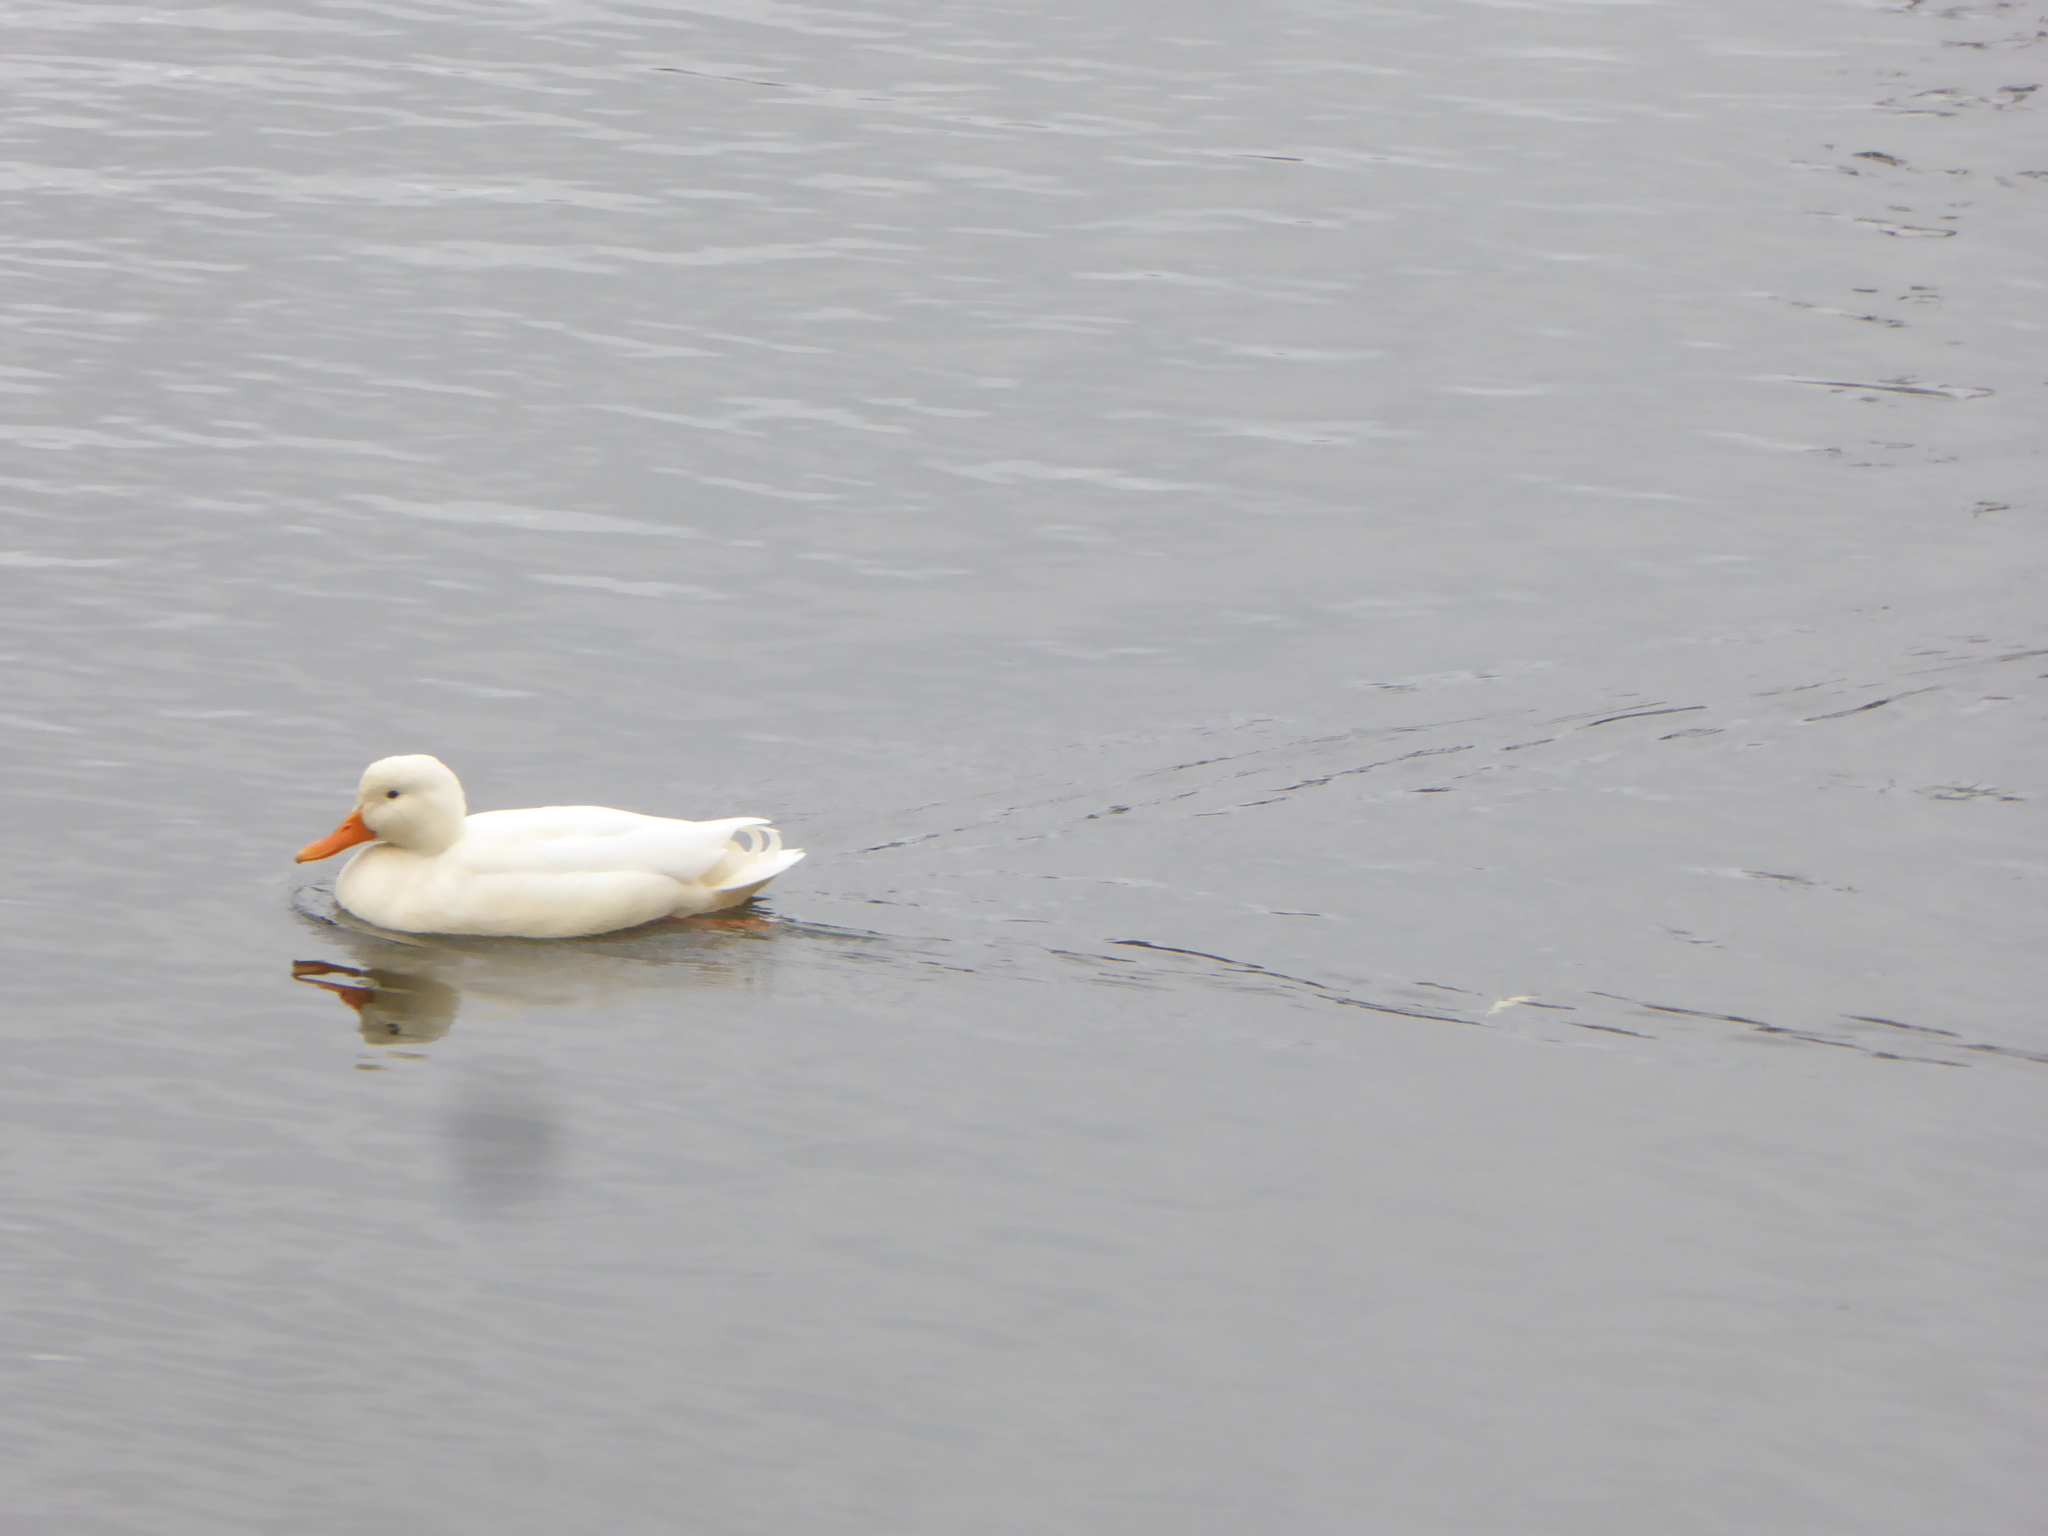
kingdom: Animalia
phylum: Chordata
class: Aves
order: Anseriformes
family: Anatidae
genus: Anas
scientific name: Anas platyrhynchos
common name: Mallard
